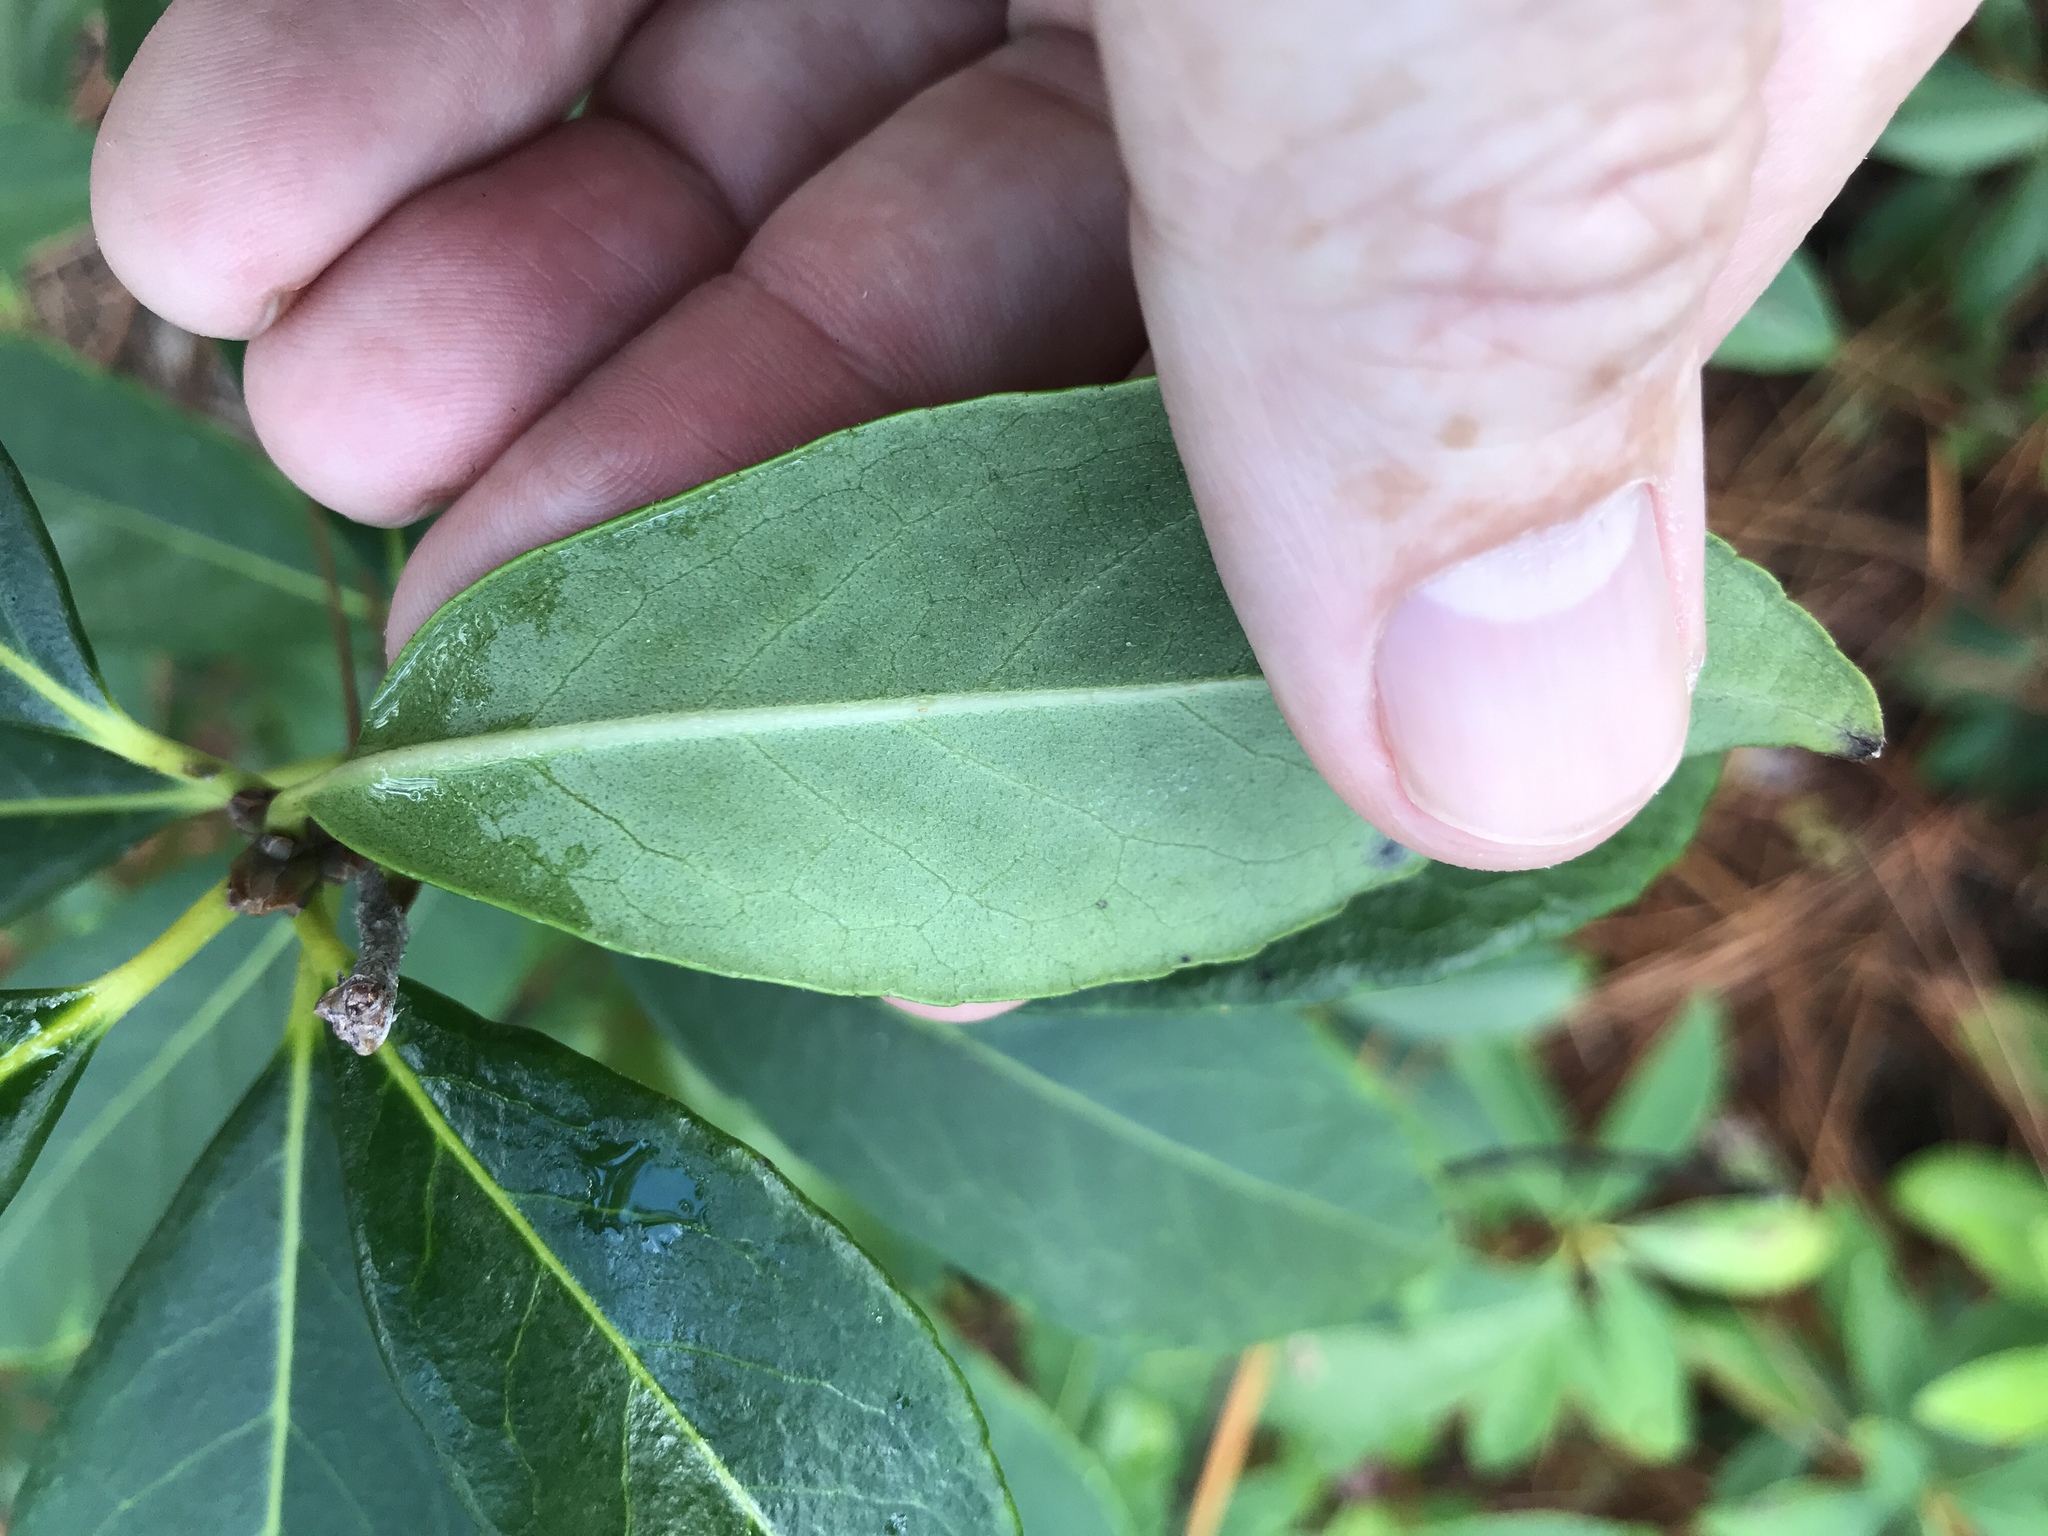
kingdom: Plantae
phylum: Tracheophyta
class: Magnoliopsida
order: Ericales
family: Symplocaceae
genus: Symplocos
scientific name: Symplocos tinctoria
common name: Horse-sugar
